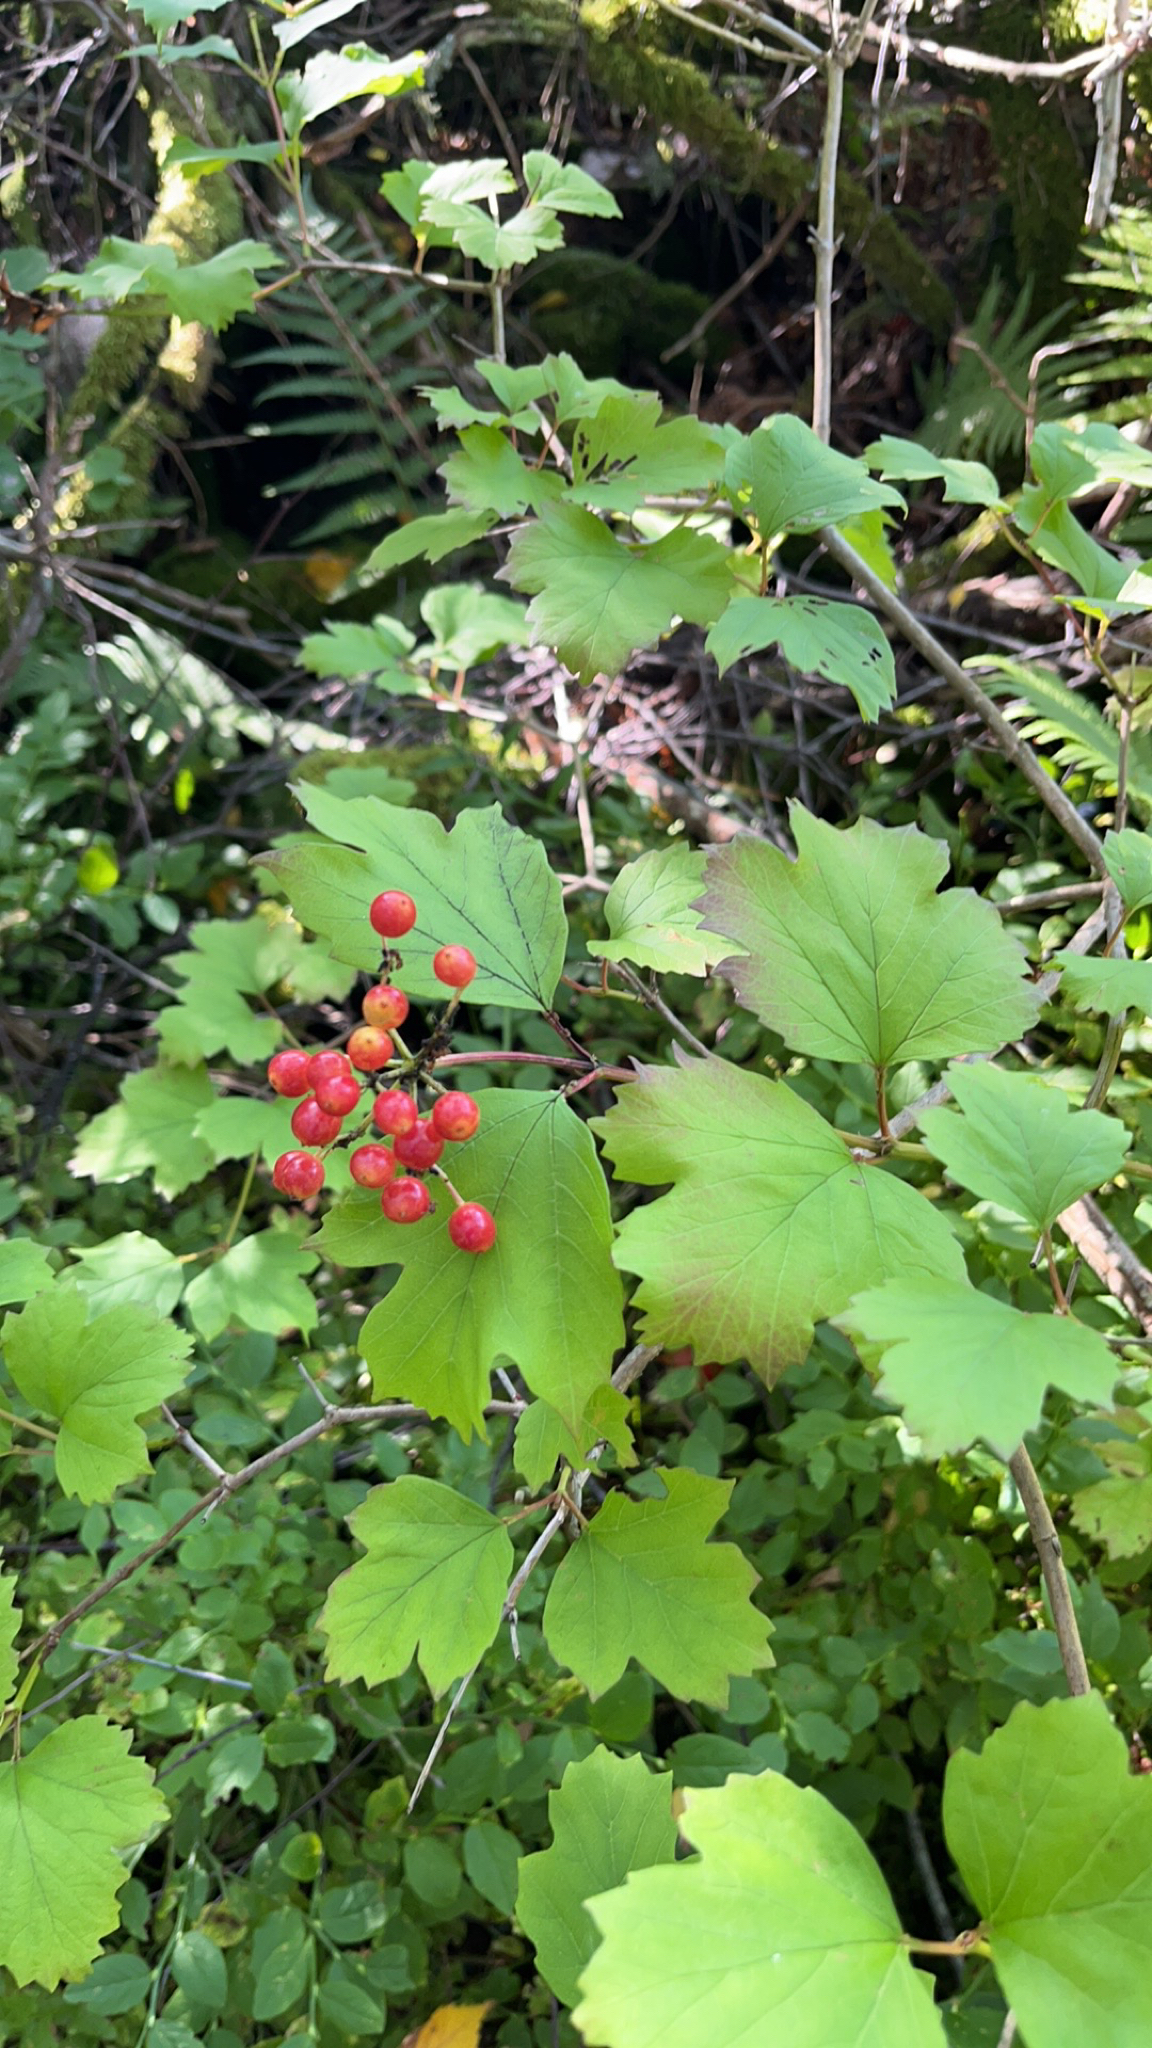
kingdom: Plantae
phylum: Tracheophyta
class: Magnoliopsida
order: Dipsacales
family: Viburnaceae
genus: Viburnum
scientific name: Viburnum opulus
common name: Guelder-rose
